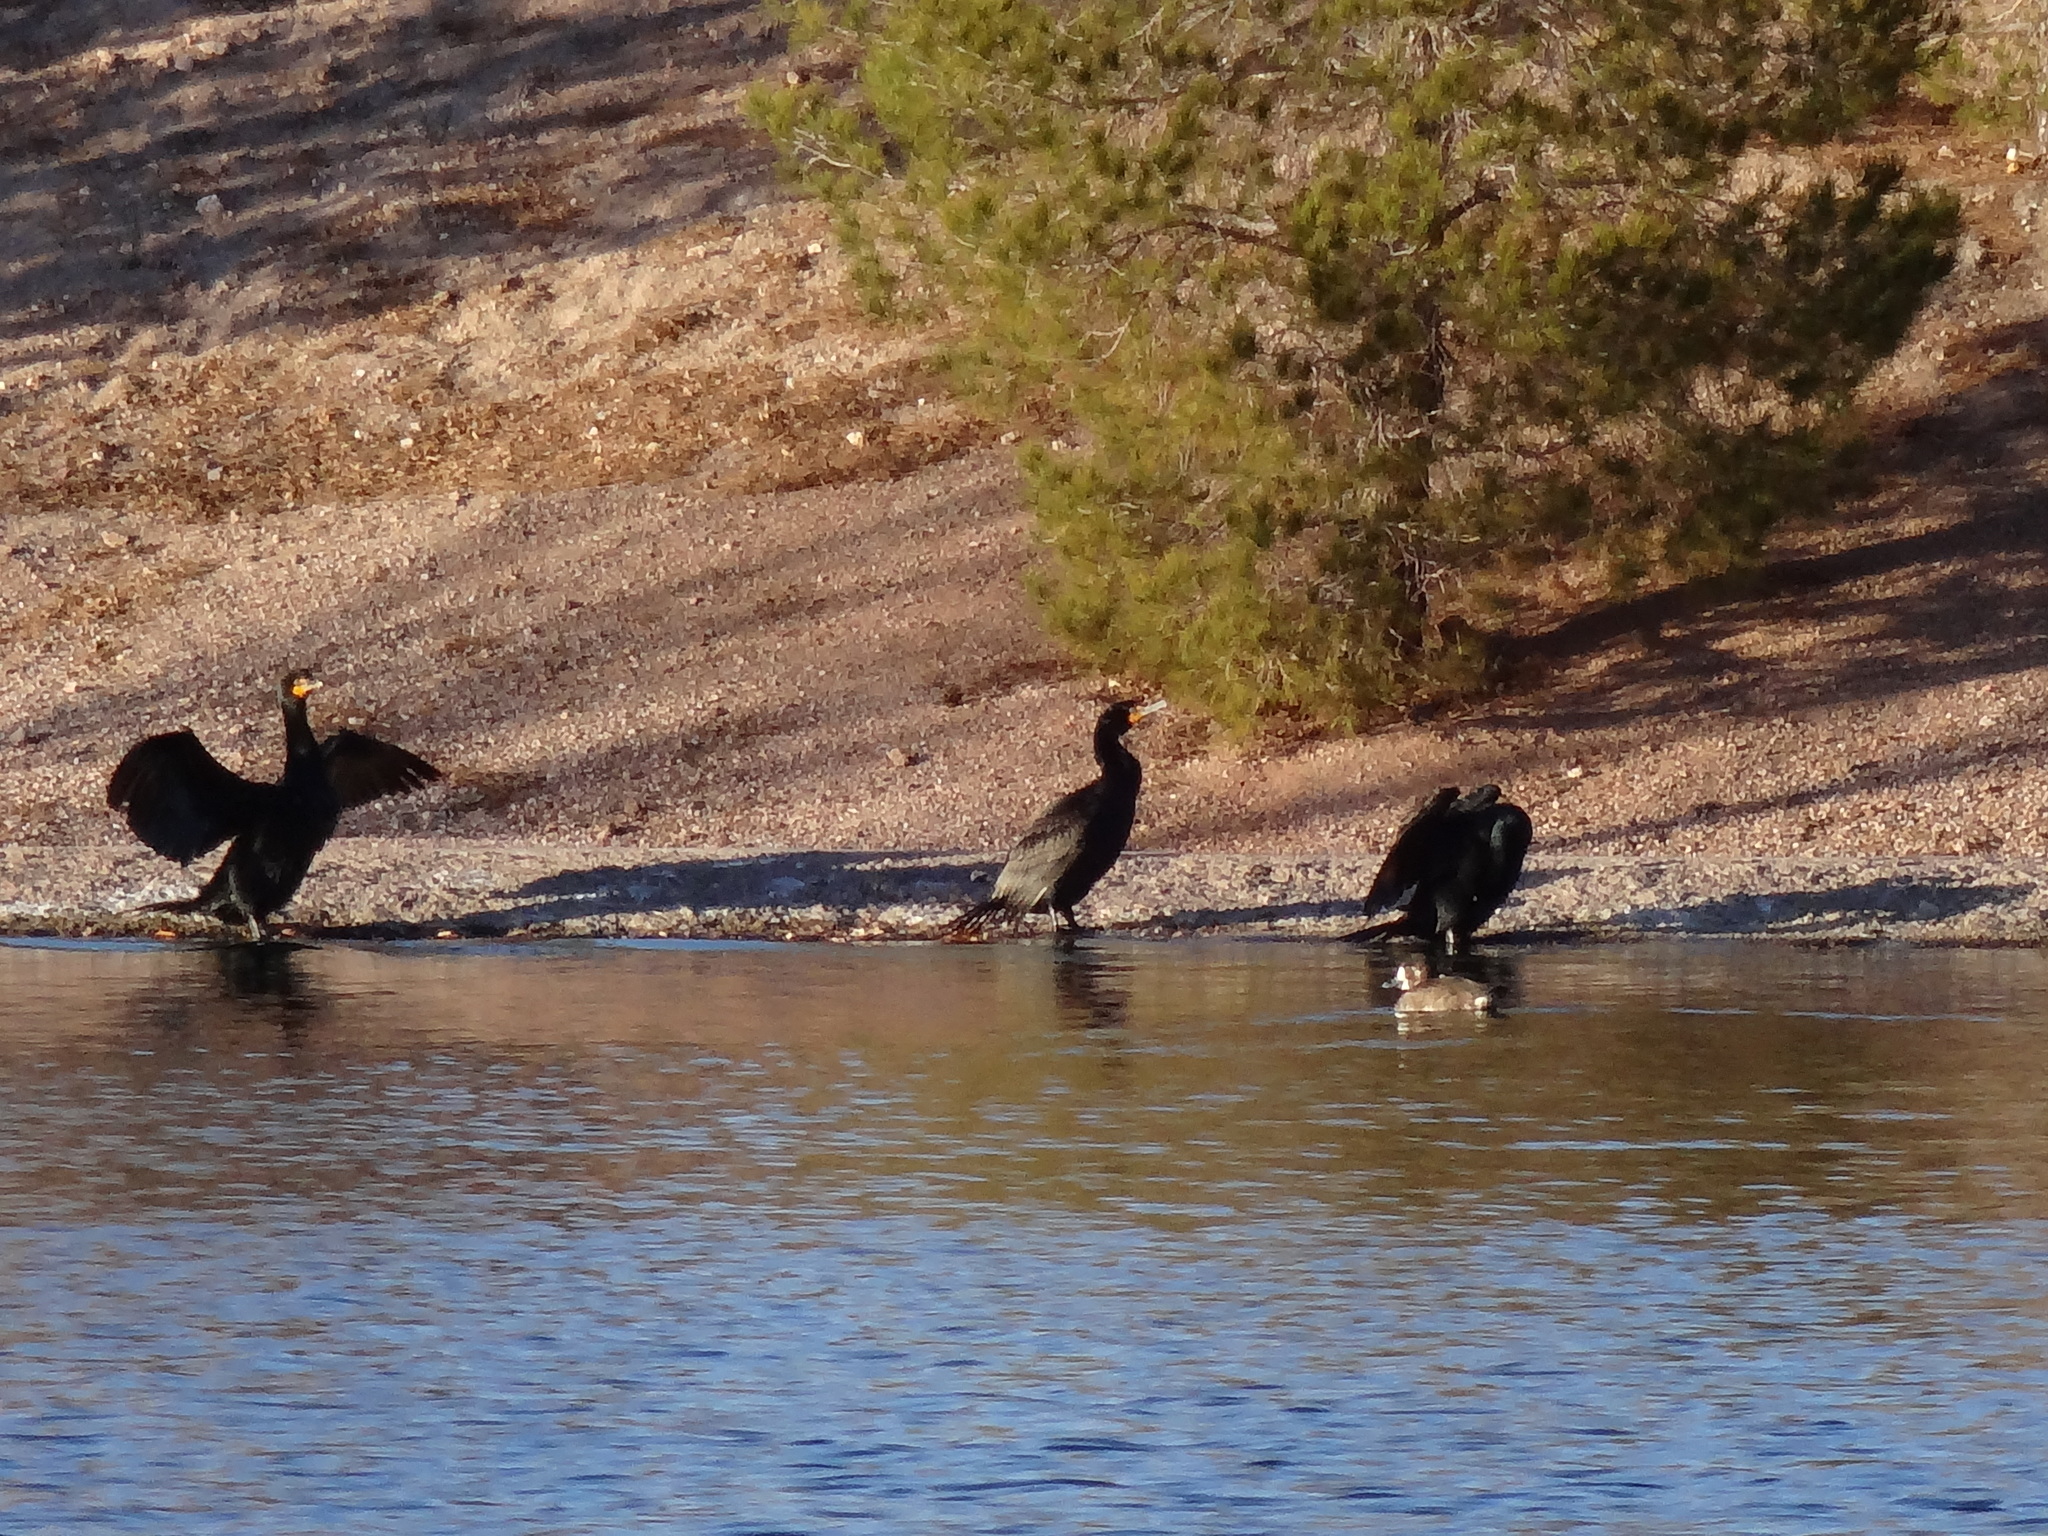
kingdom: Animalia
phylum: Chordata
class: Aves
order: Suliformes
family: Phalacrocoracidae
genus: Phalacrocorax
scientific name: Phalacrocorax auritus
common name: Double-crested cormorant
